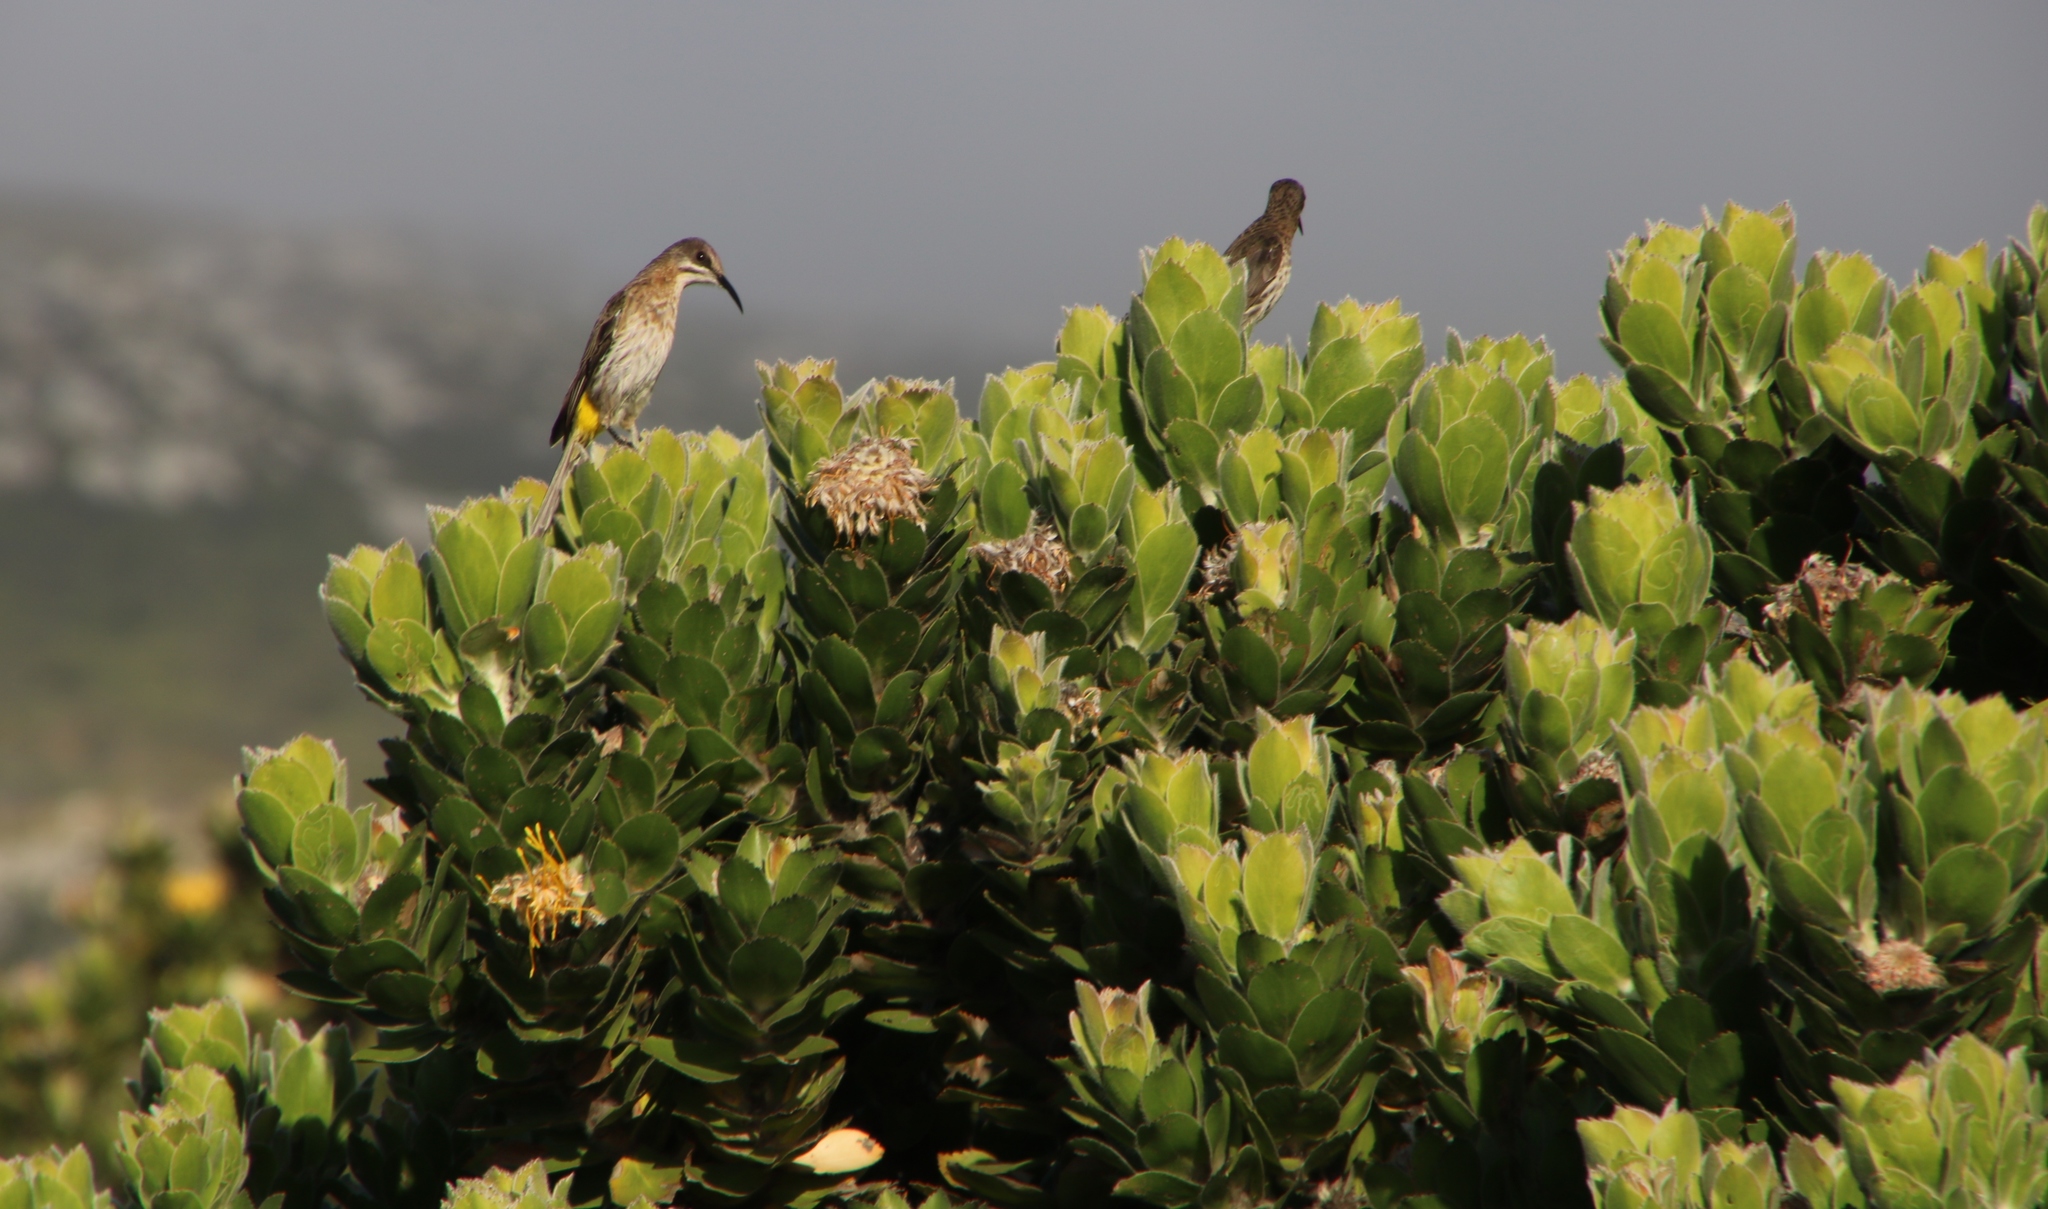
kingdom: Animalia
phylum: Chordata
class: Aves
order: Passeriformes
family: Promeropidae
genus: Promerops
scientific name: Promerops cafer
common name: Cape sugarbird
